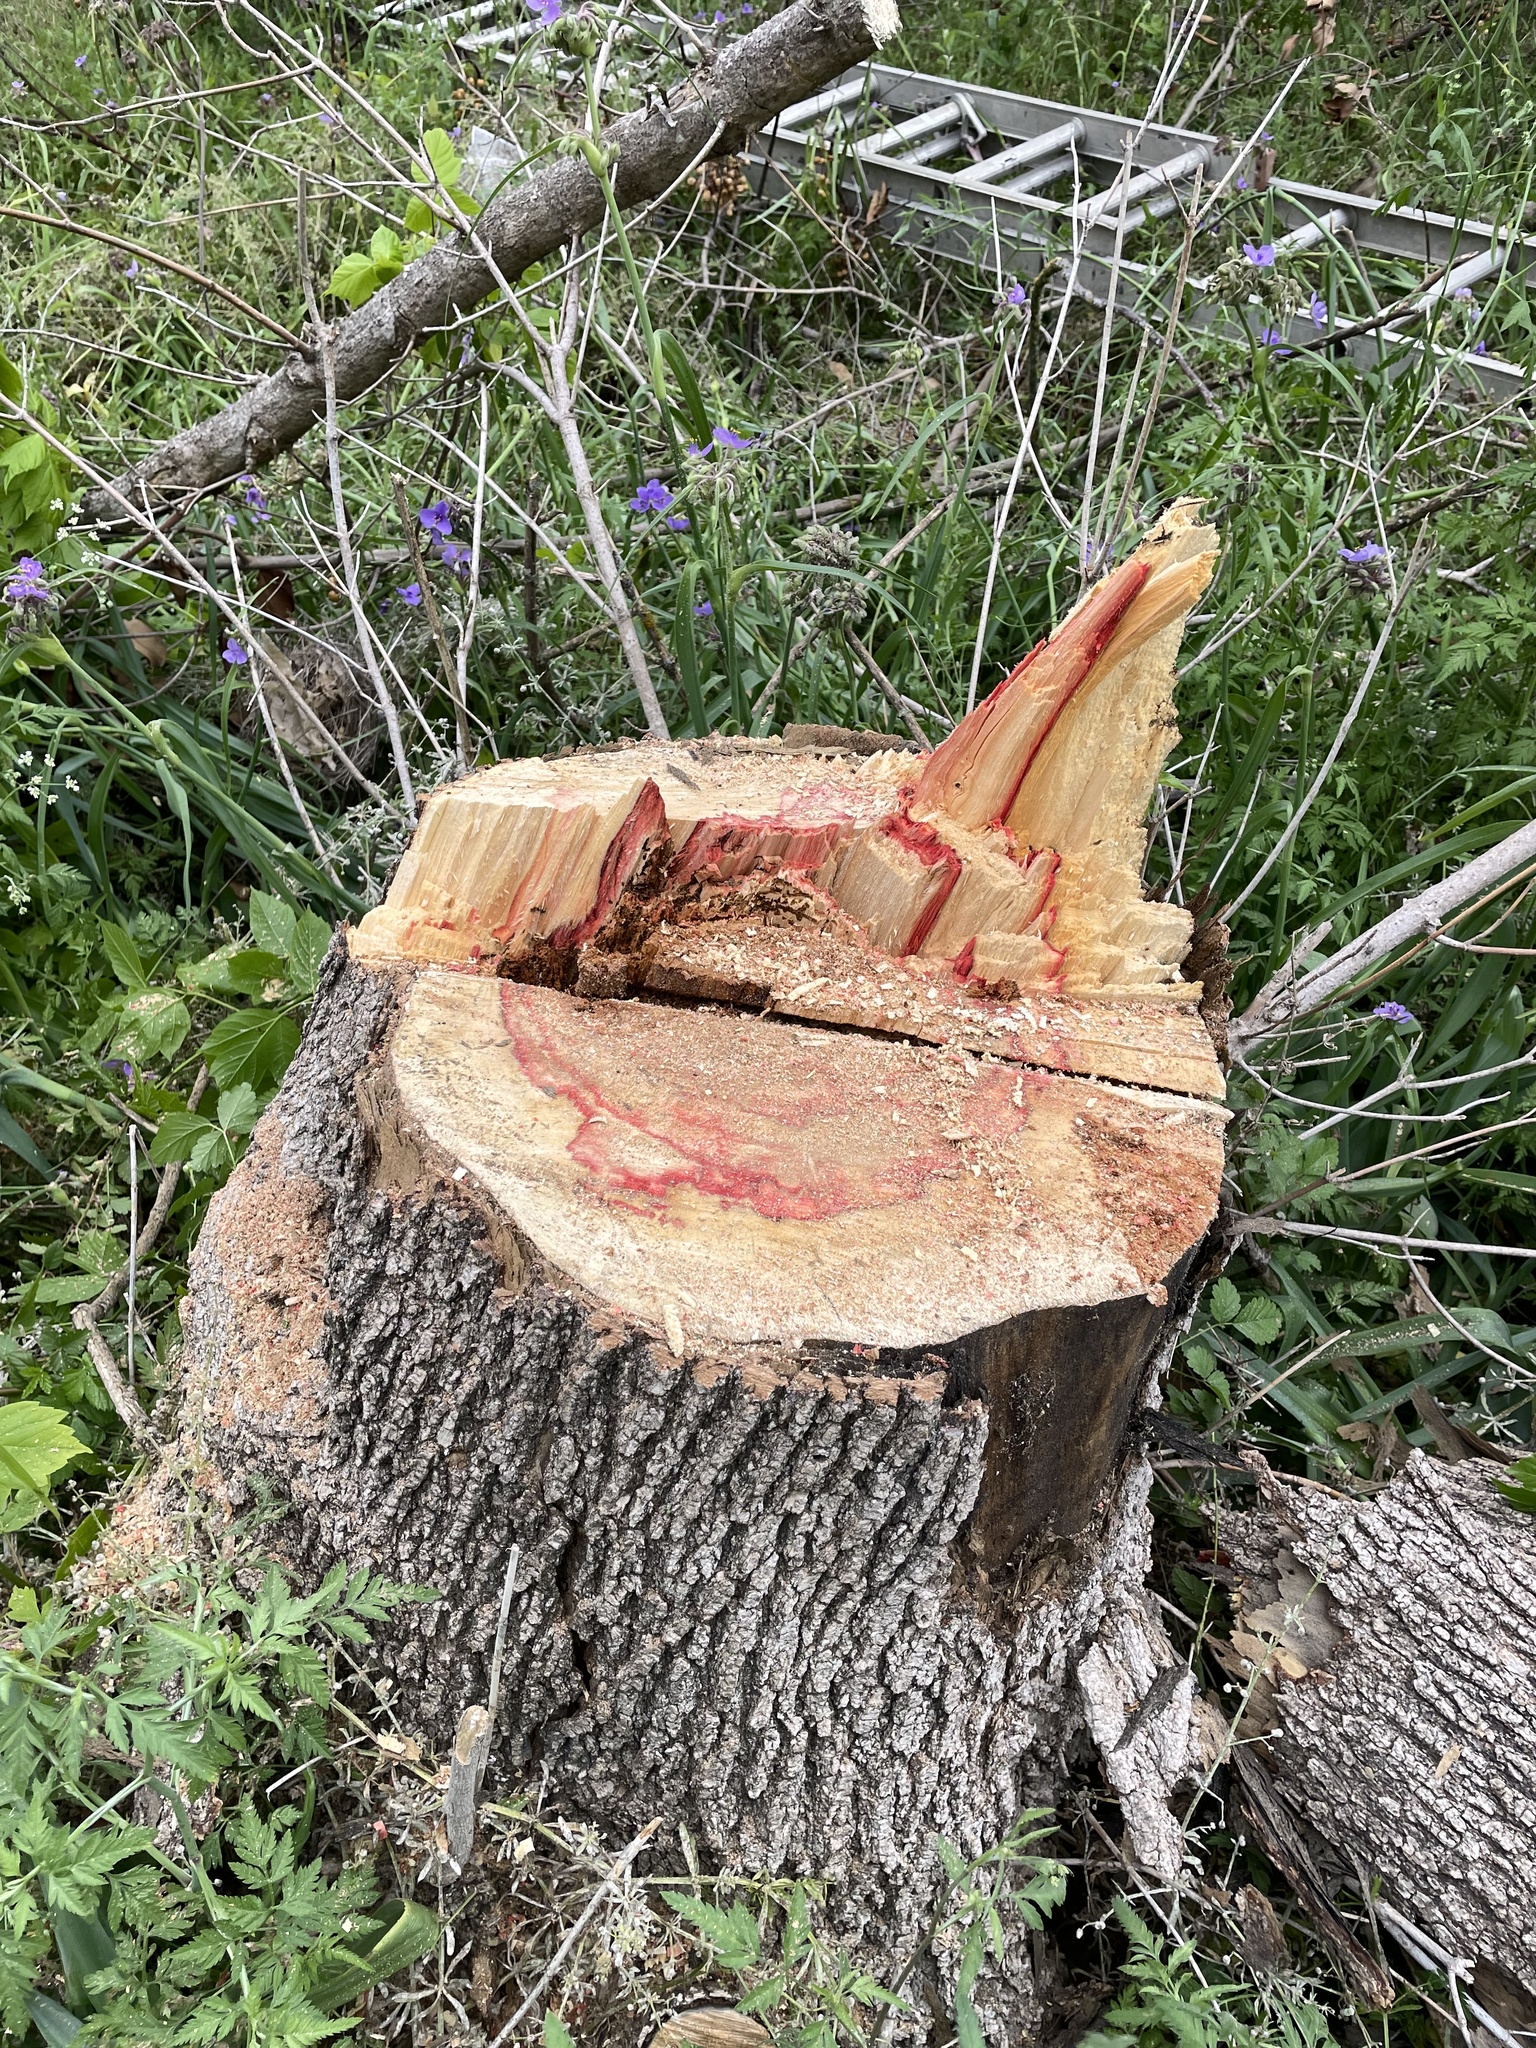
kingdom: Plantae
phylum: Tracheophyta
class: Magnoliopsida
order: Sapindales
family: Sapindaceae
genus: Acer
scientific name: Acer negundo
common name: Ashleaf maple
